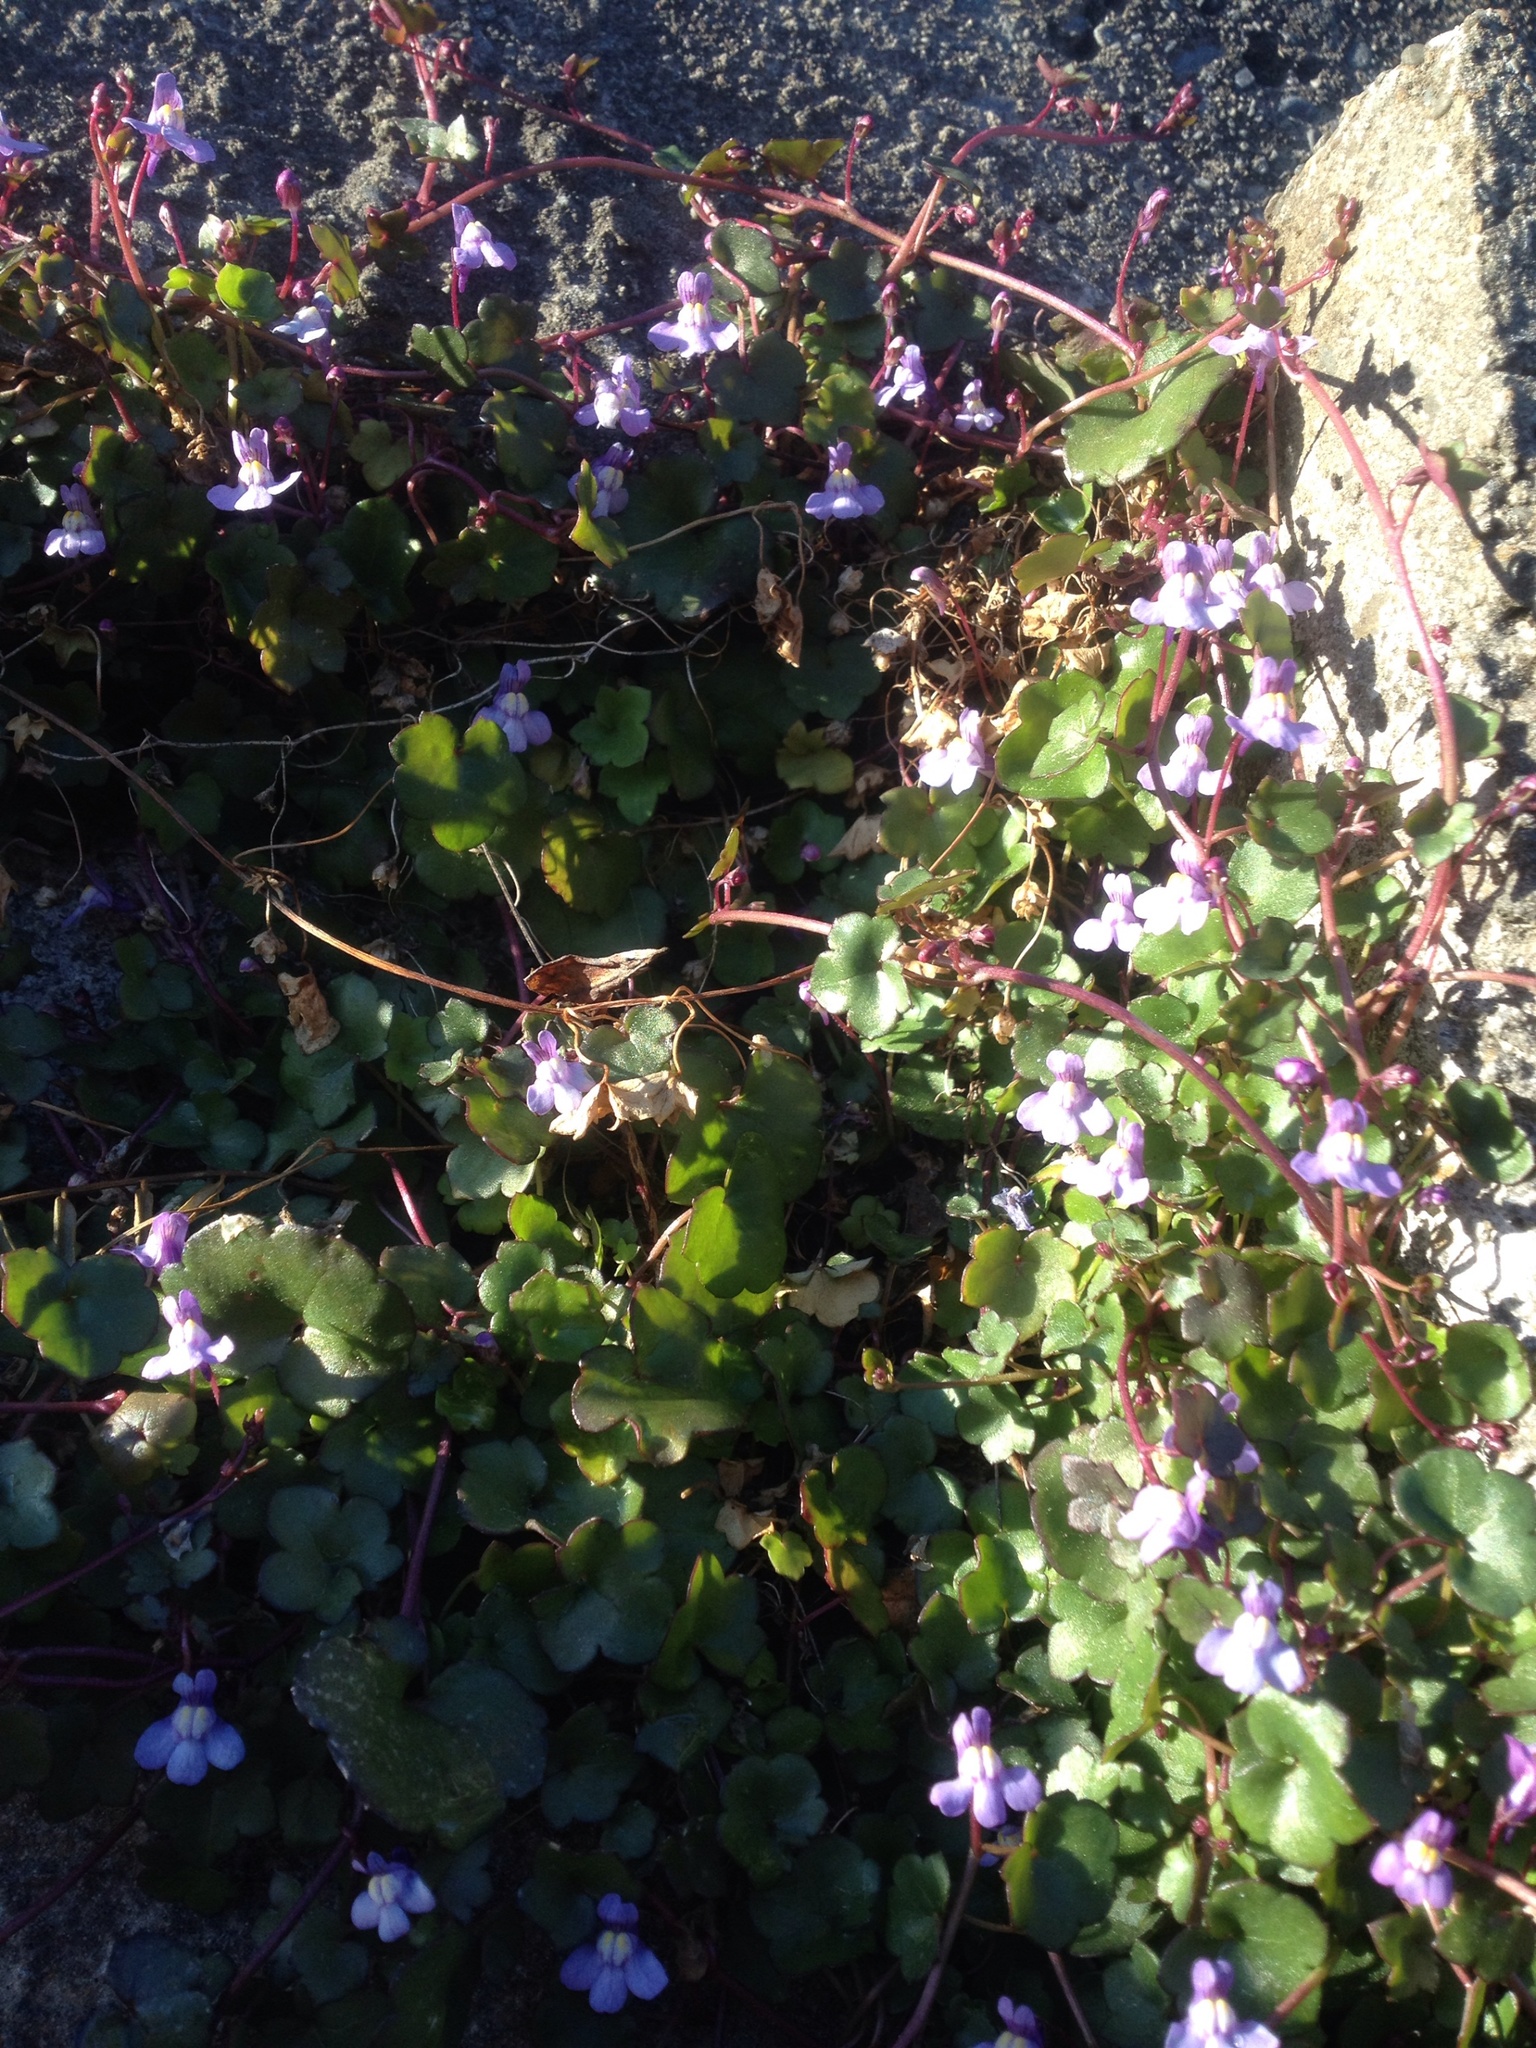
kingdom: Plantae
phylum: Tracheophyta
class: Magnoliopsida
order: Lamiales
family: Plantaginaceae
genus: Cymbalaria
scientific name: Cymbalaria muralis
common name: Ivy-leaved toadflax
